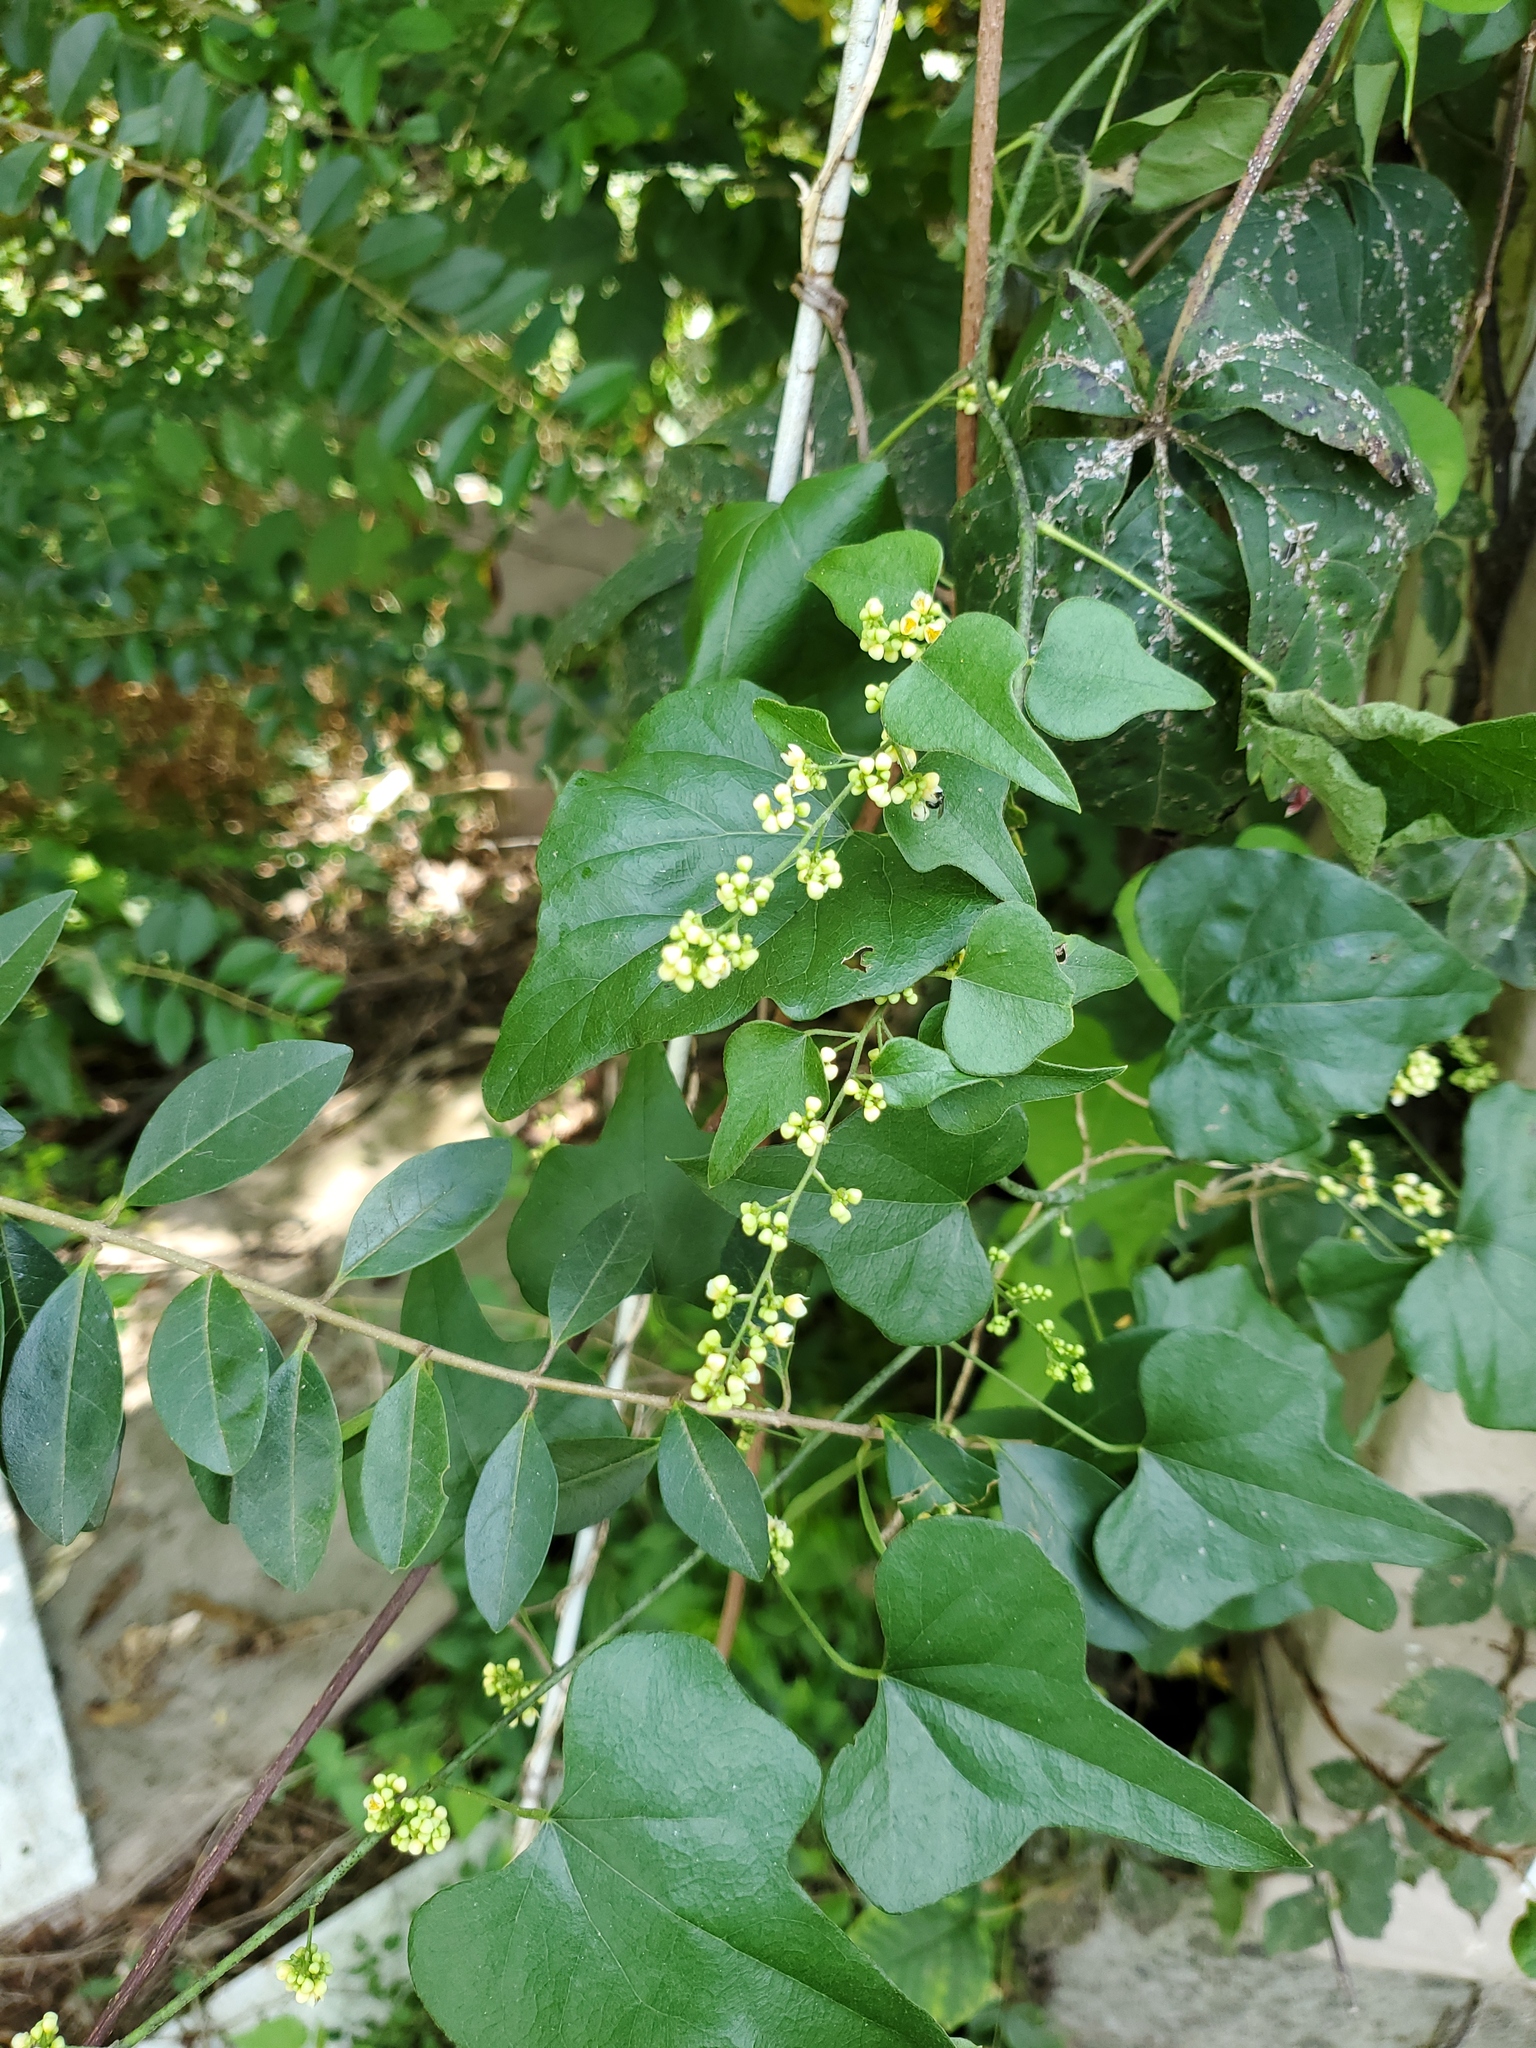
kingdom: Plantae
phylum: Tracheophyta
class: Magnoliopsida
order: Ranunculales
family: Menispermaceae
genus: Cocculus
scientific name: Cocculus carolinus
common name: Carolina moonseed
